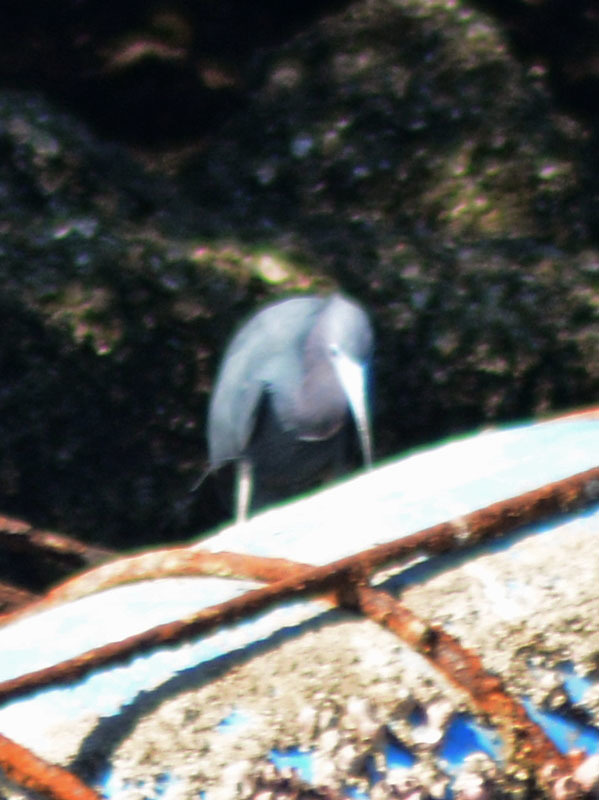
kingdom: Animalia
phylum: Chordata
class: Aves
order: Pelecaniformes
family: Ardeidae
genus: Egretta
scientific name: Egretta caerulea
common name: Little blue heron
